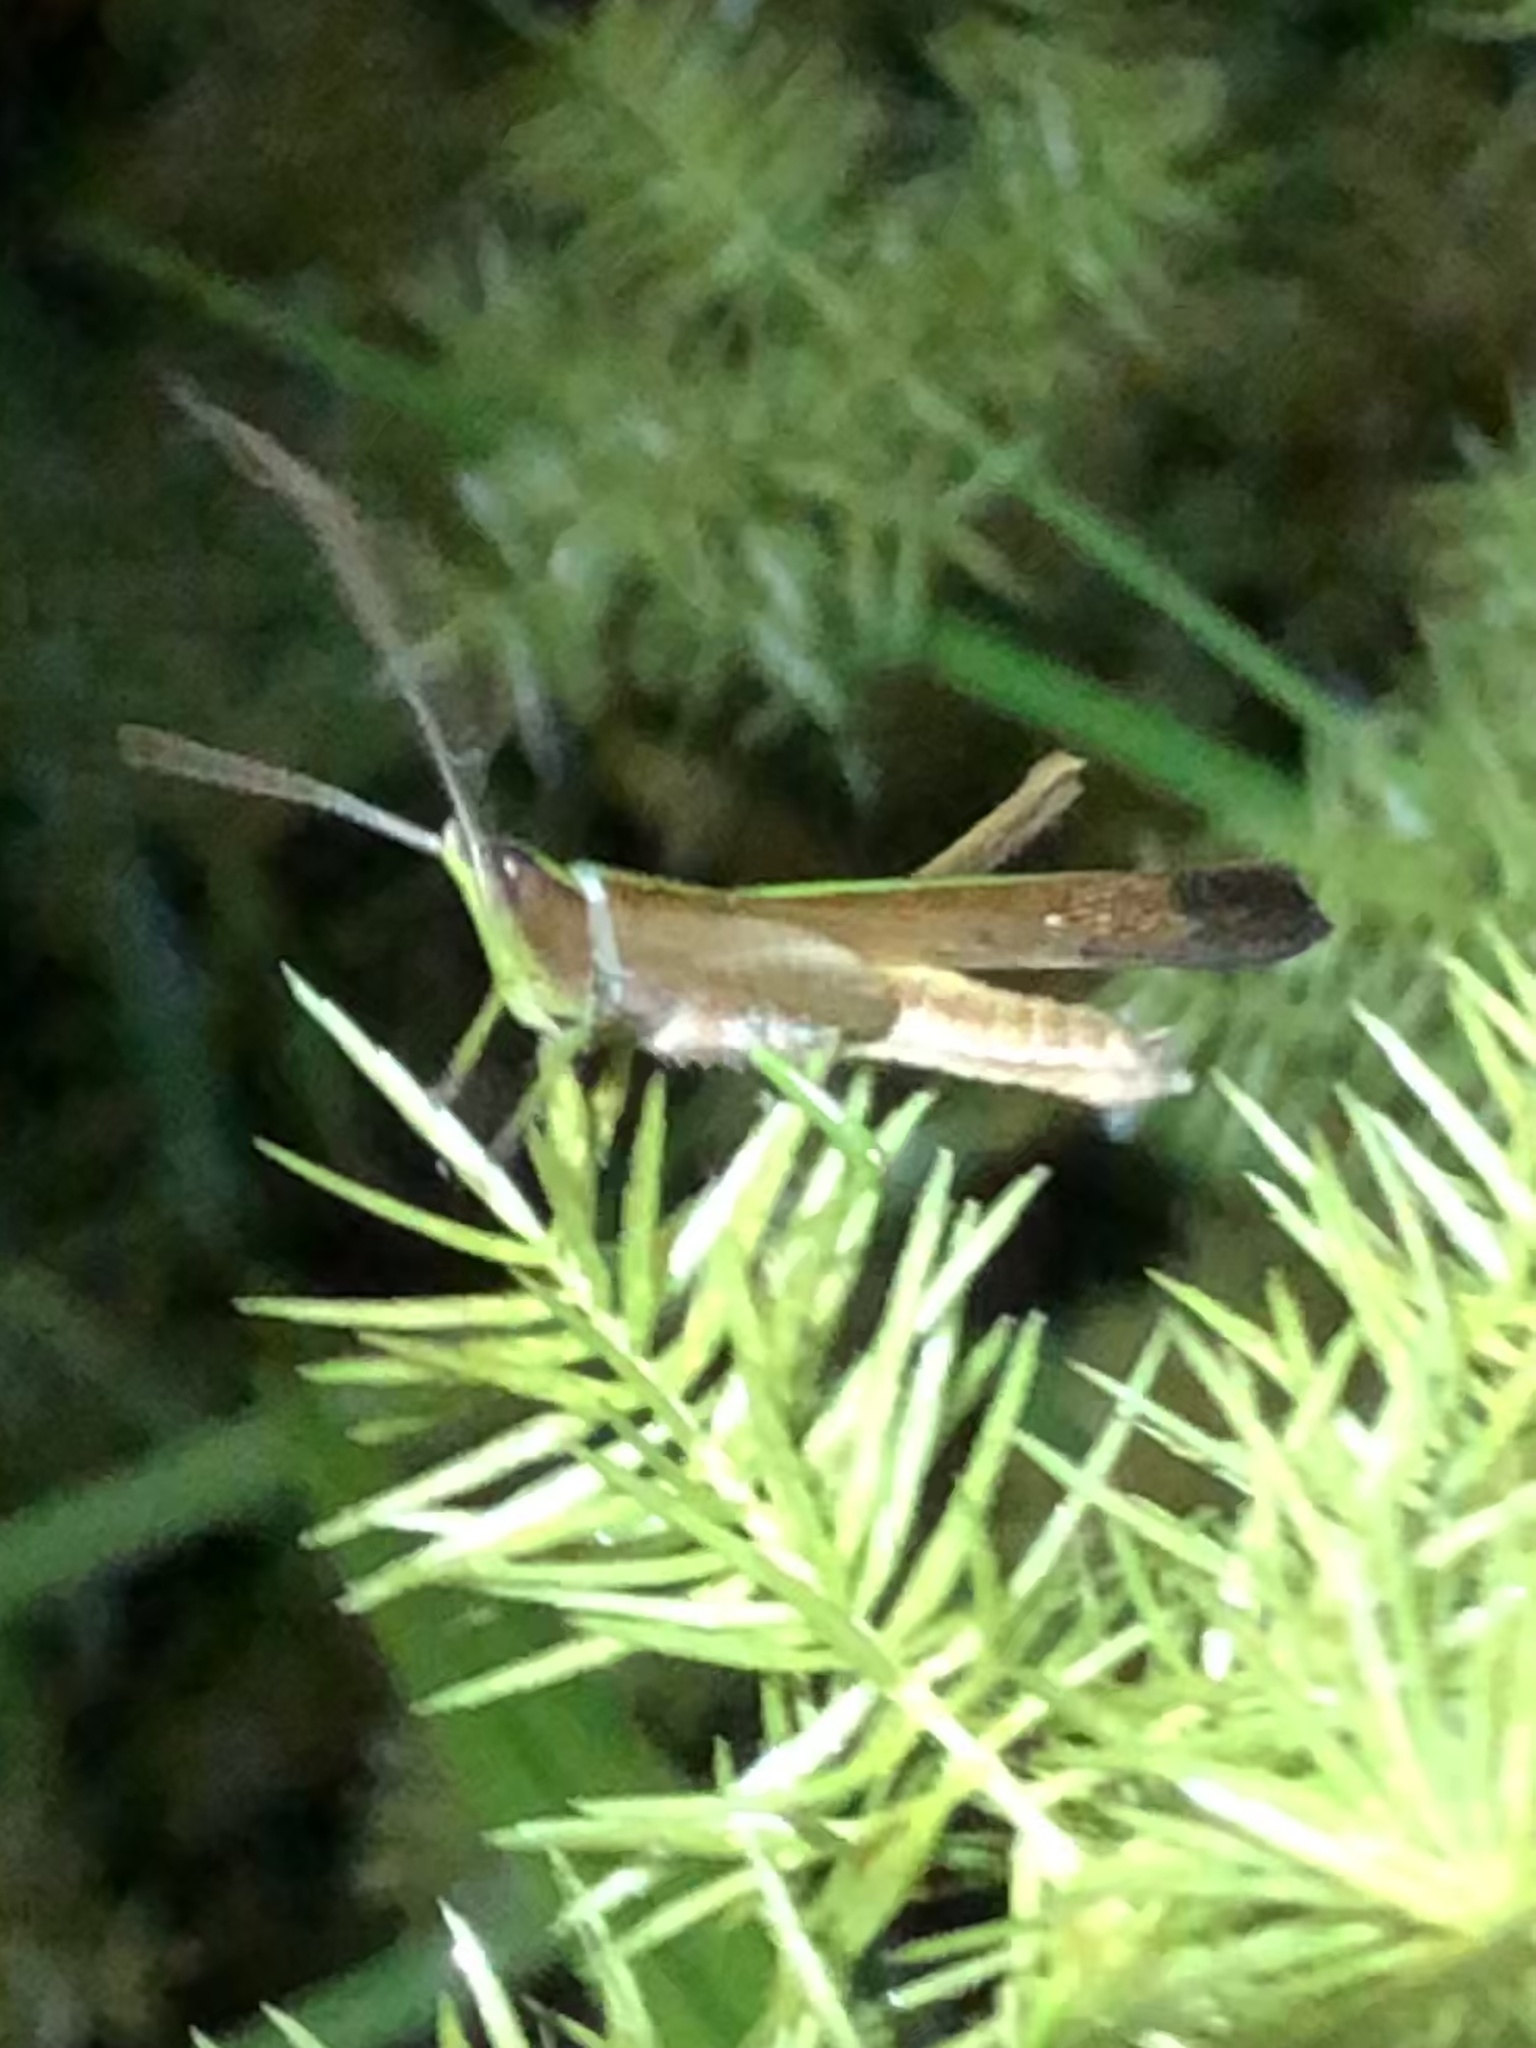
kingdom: Animalia
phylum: Arthropoda
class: Insecta
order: Orthoptera
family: Acrididae
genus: Metaleptea
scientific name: Metaleptea adspersa
